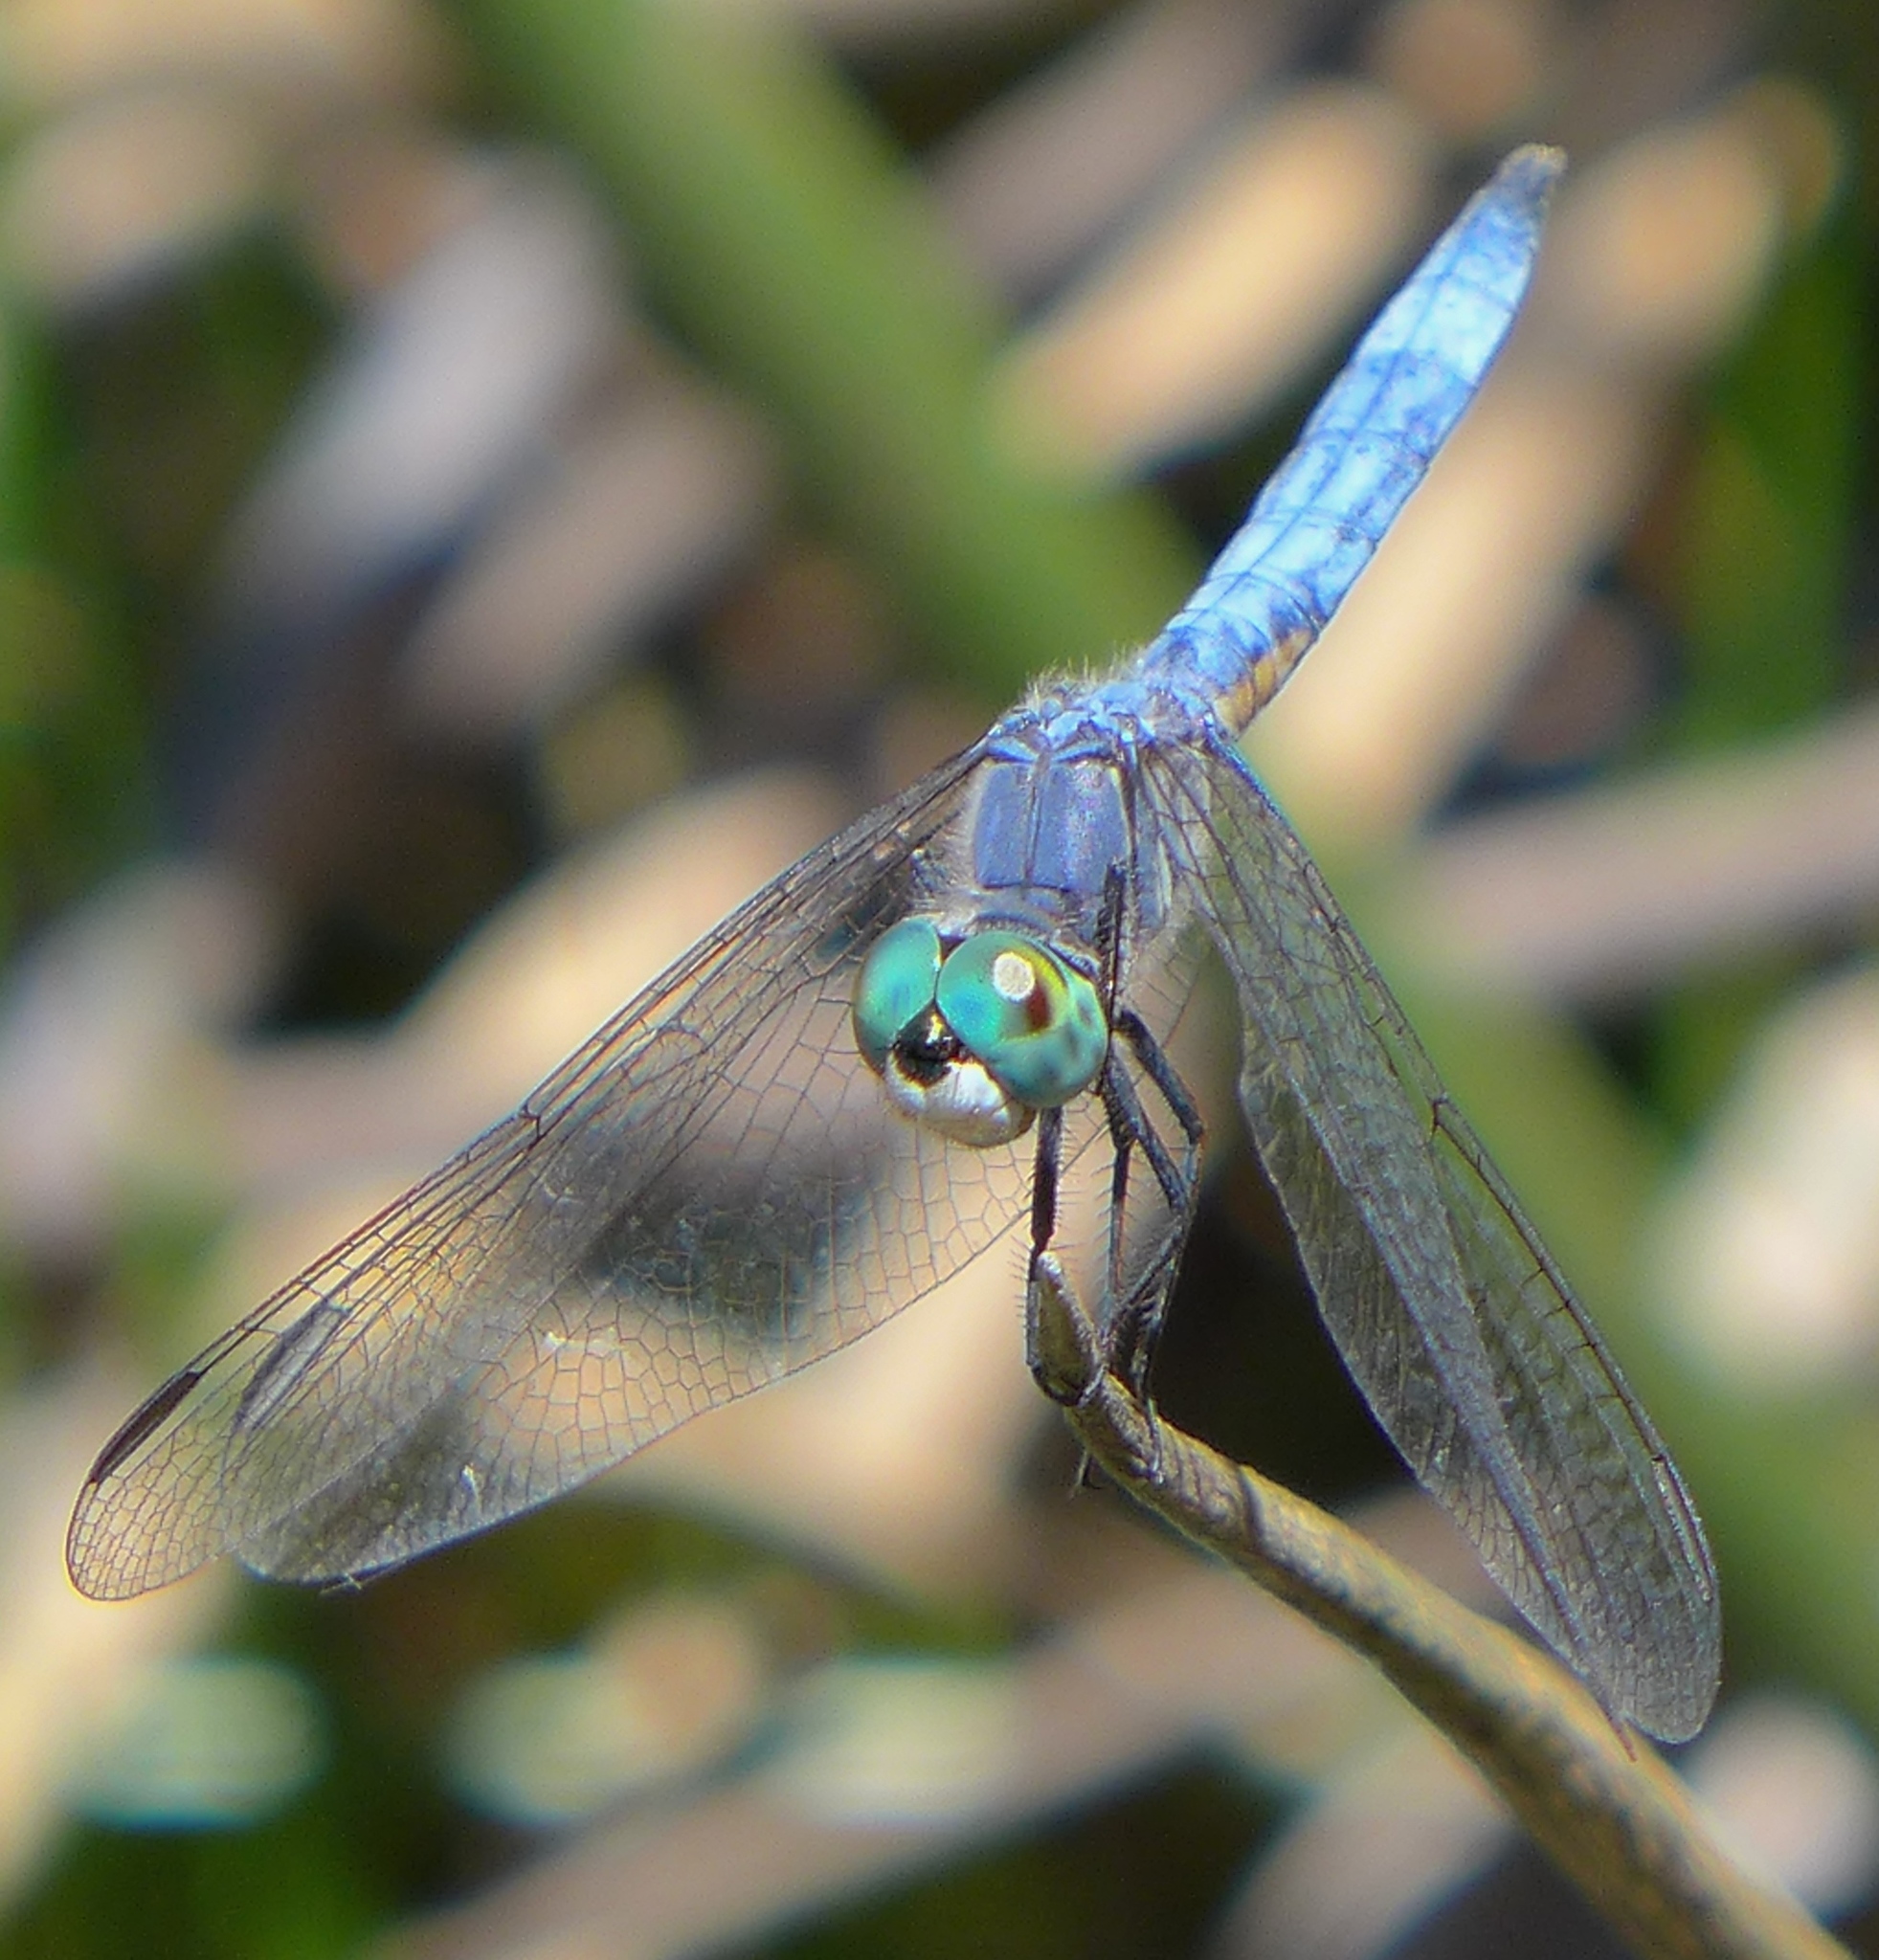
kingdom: Animalia
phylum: Arthropoda
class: Insecta
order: Odonata
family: Libellulidae
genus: Pachydiplax
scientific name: Pachydiplax longipennis
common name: Blue dasher
